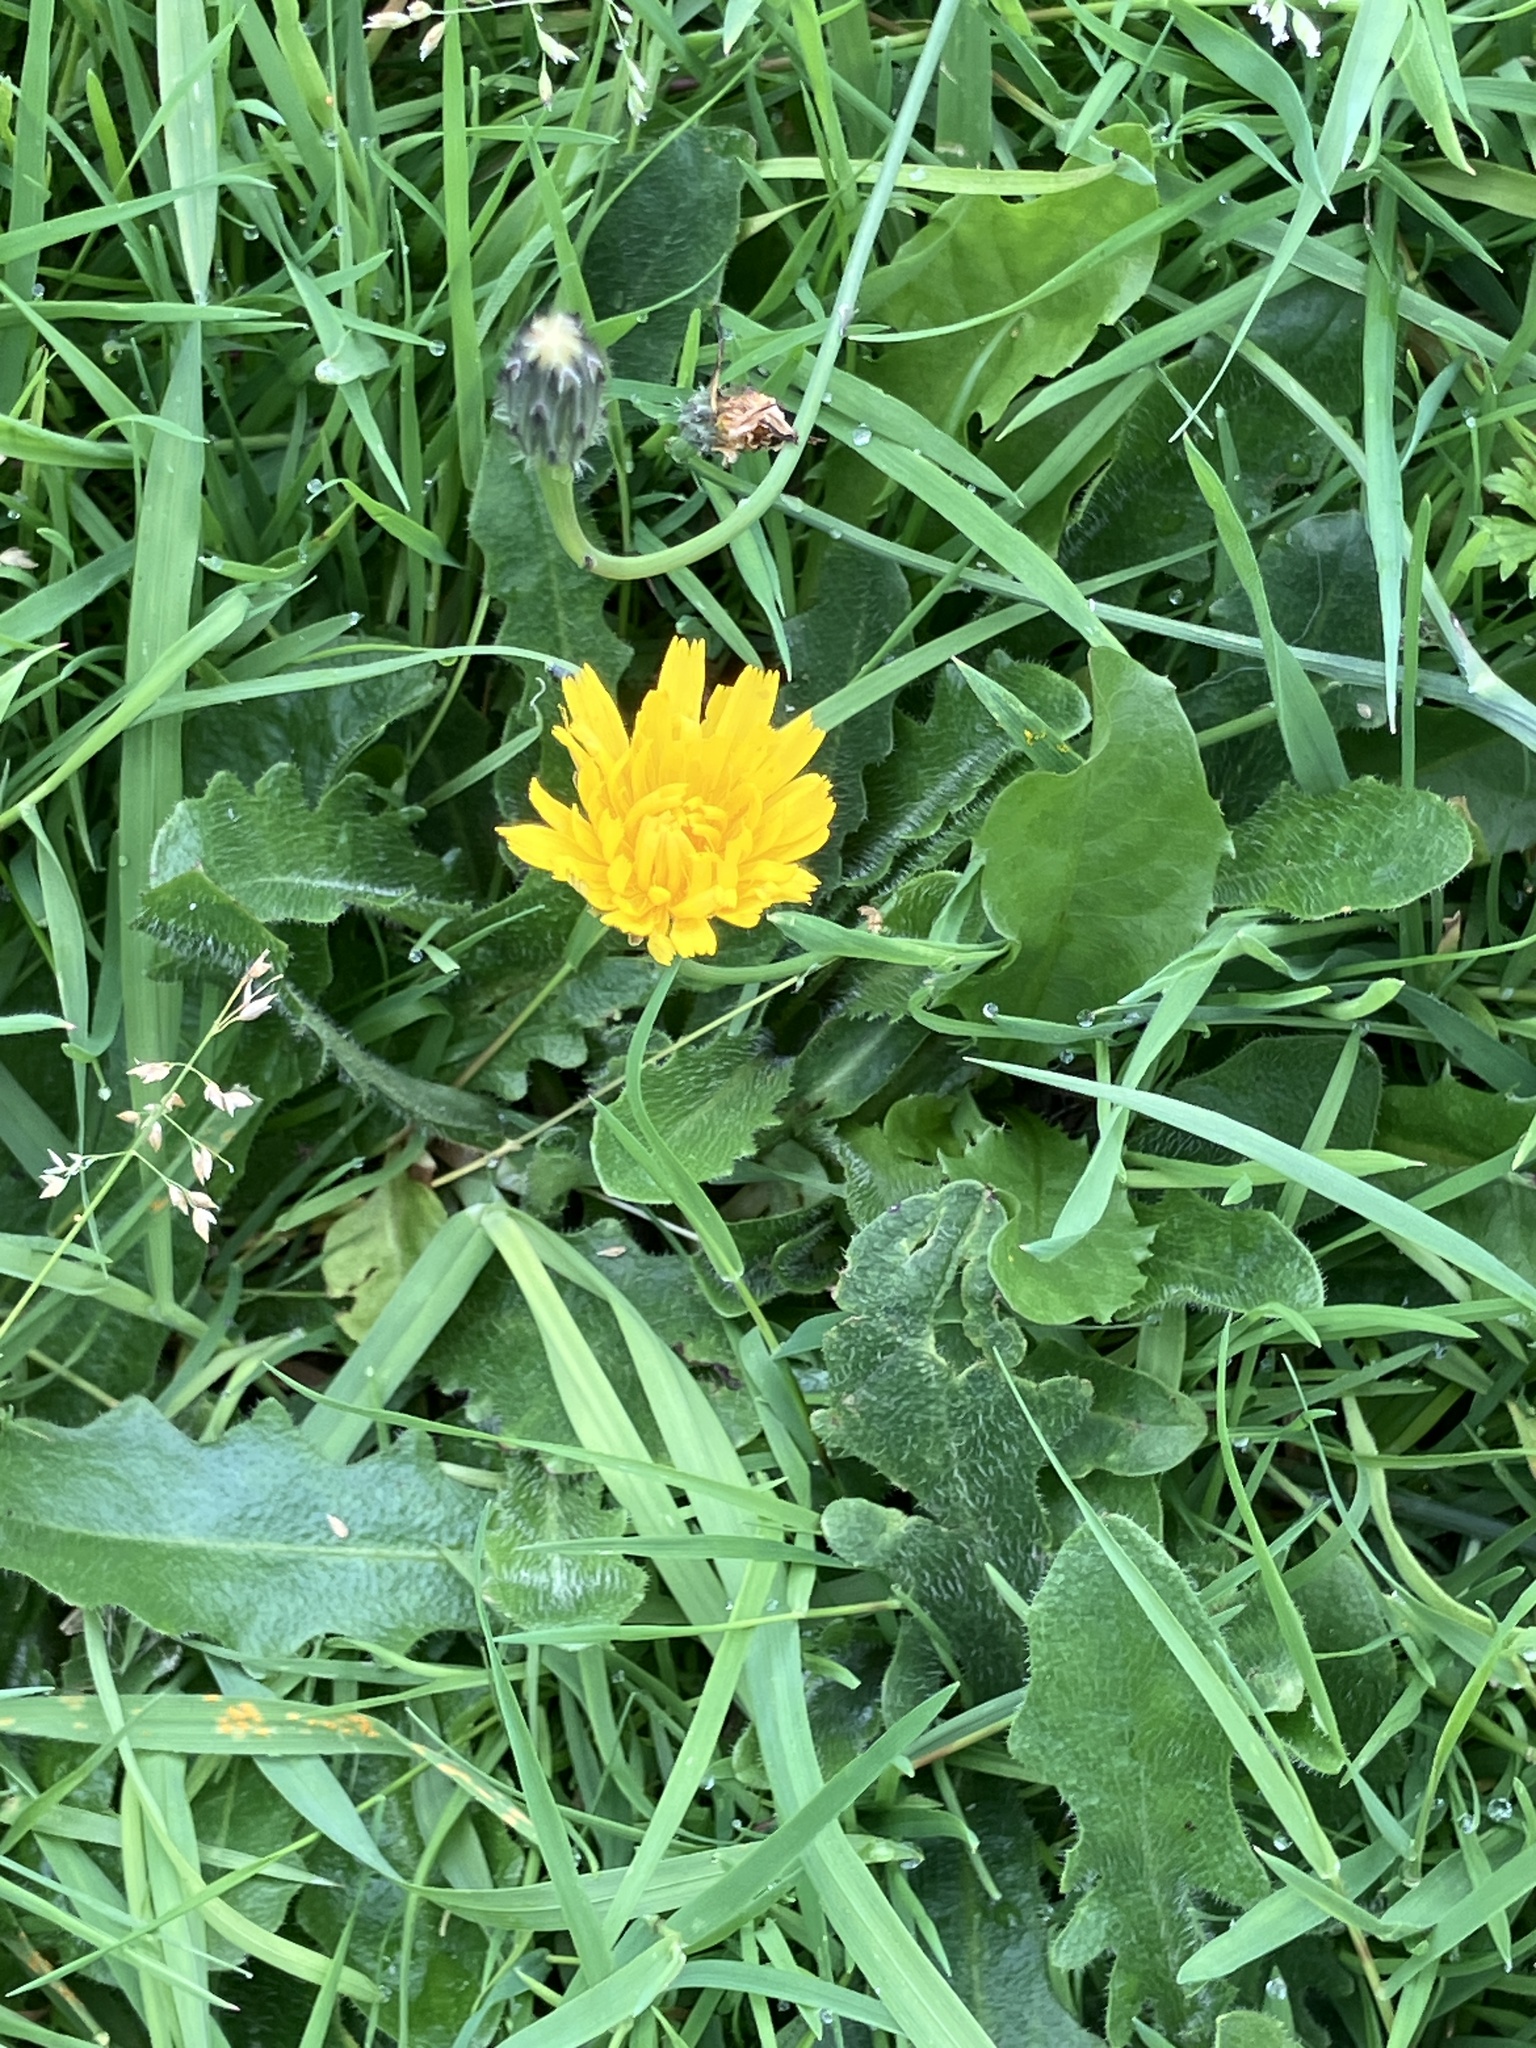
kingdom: Plantae
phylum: Tracheophyta
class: Magnoliopsida
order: Asterales
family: Asteraceae
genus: Hypochaeris
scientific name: Hypochaeris radicata
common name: Flatweed
